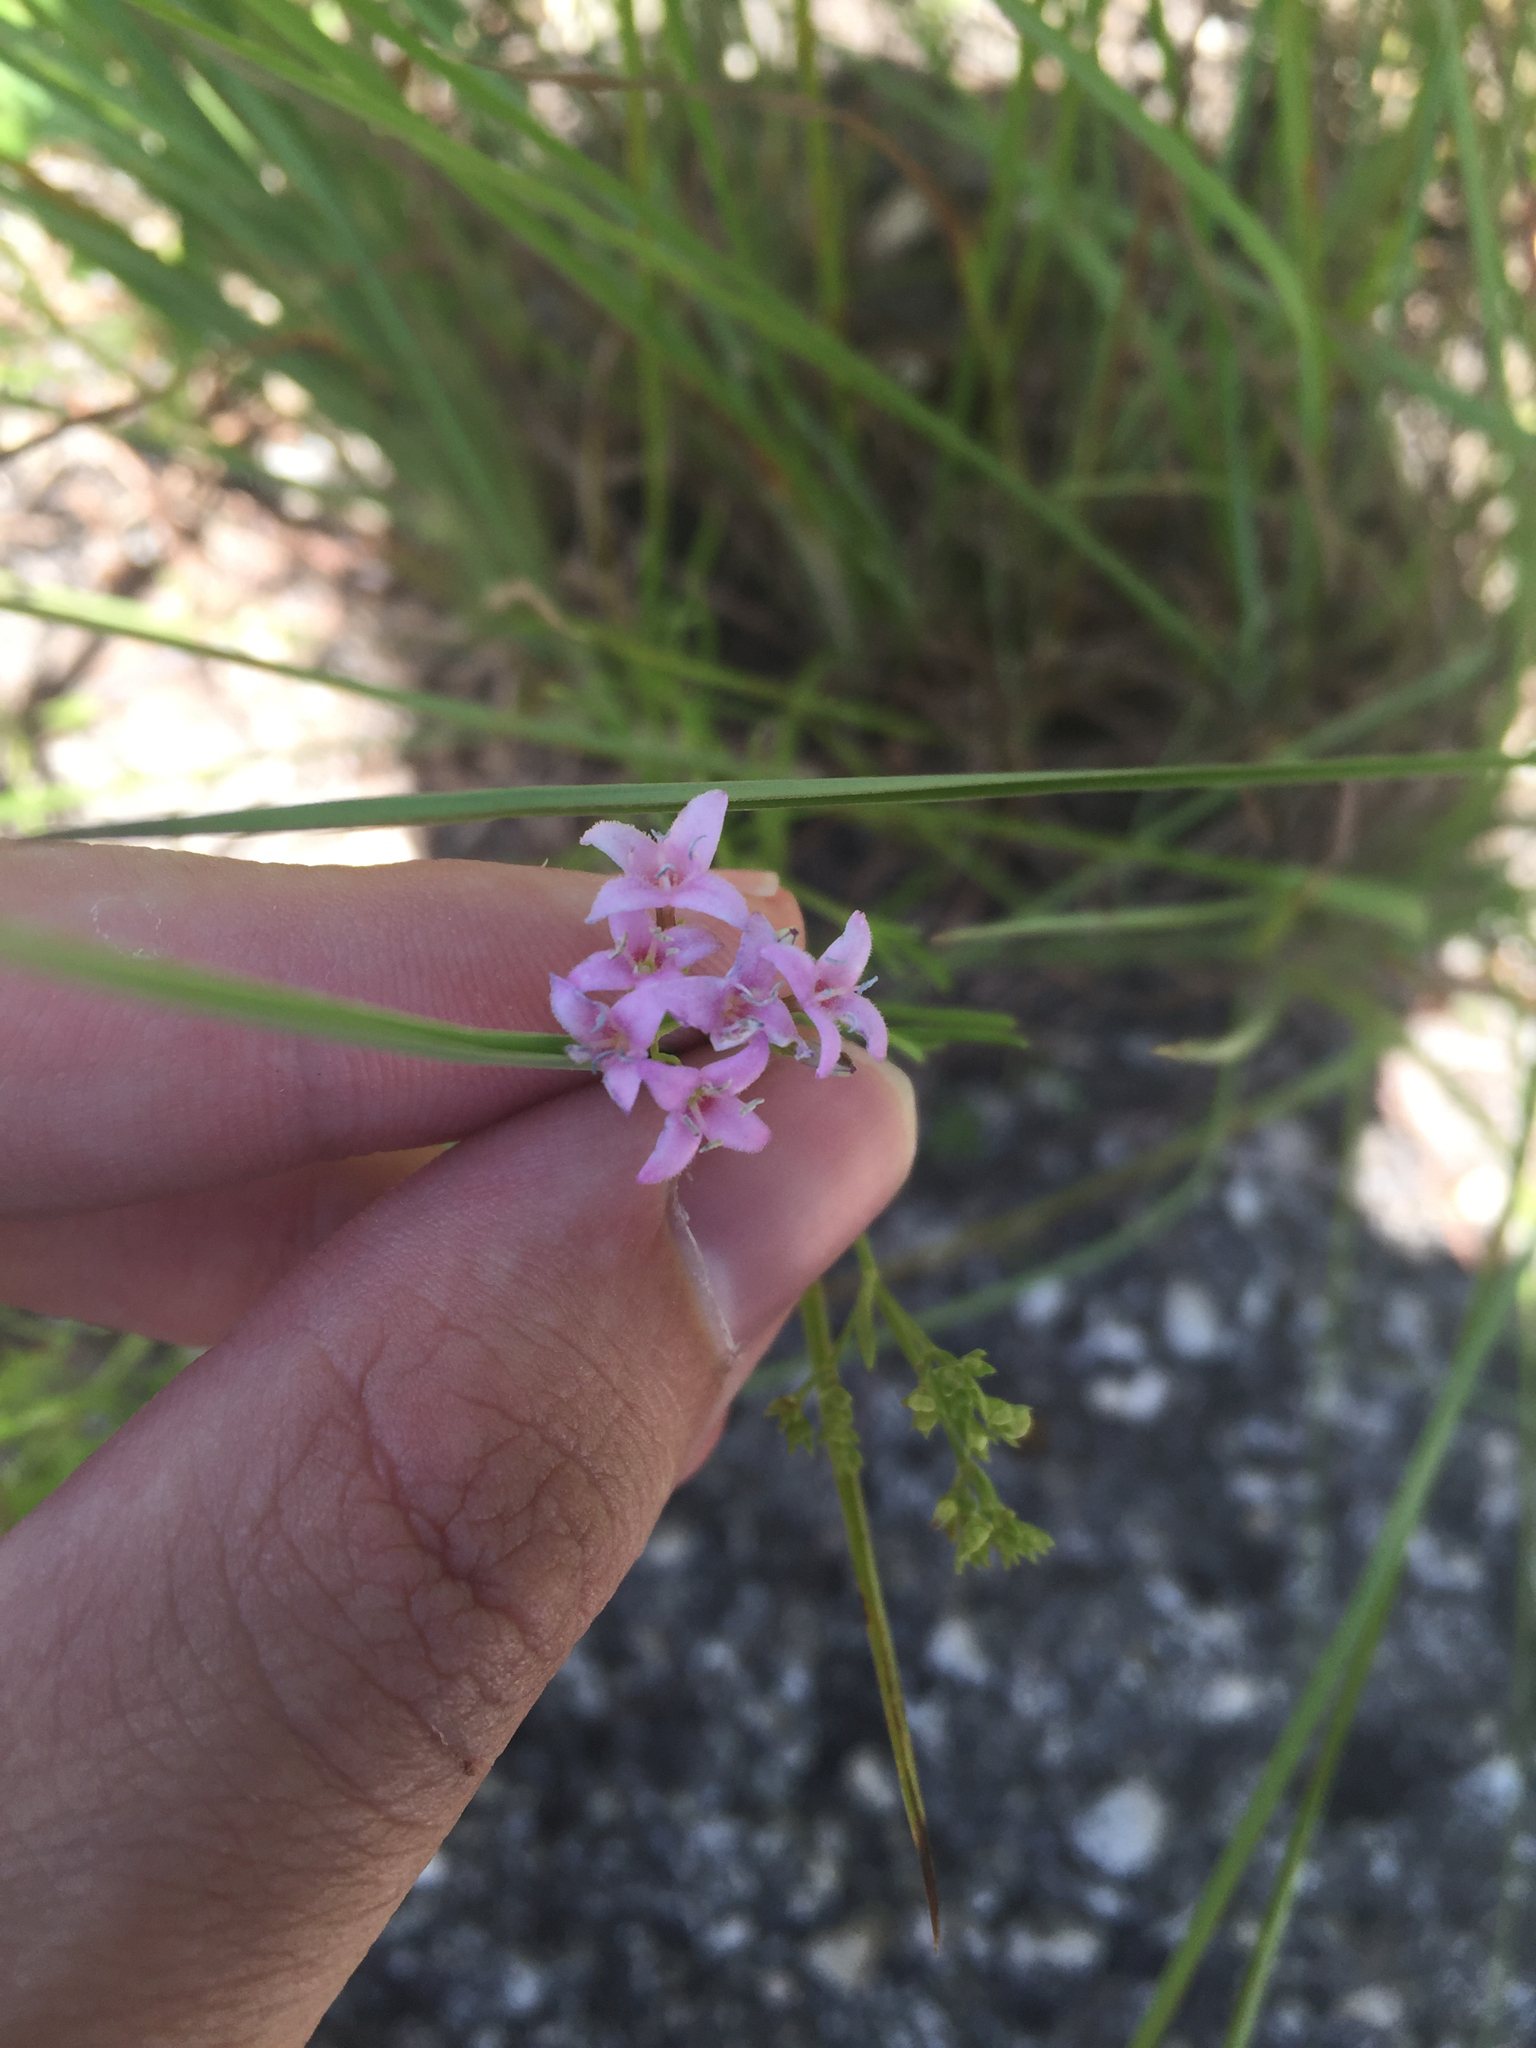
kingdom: Plantae
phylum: Tracheophyta
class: Magnoliopsida
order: Gentianales
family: Rubiaceae
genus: Stenaria
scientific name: Stenaria nigricans
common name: Diamondflowers
